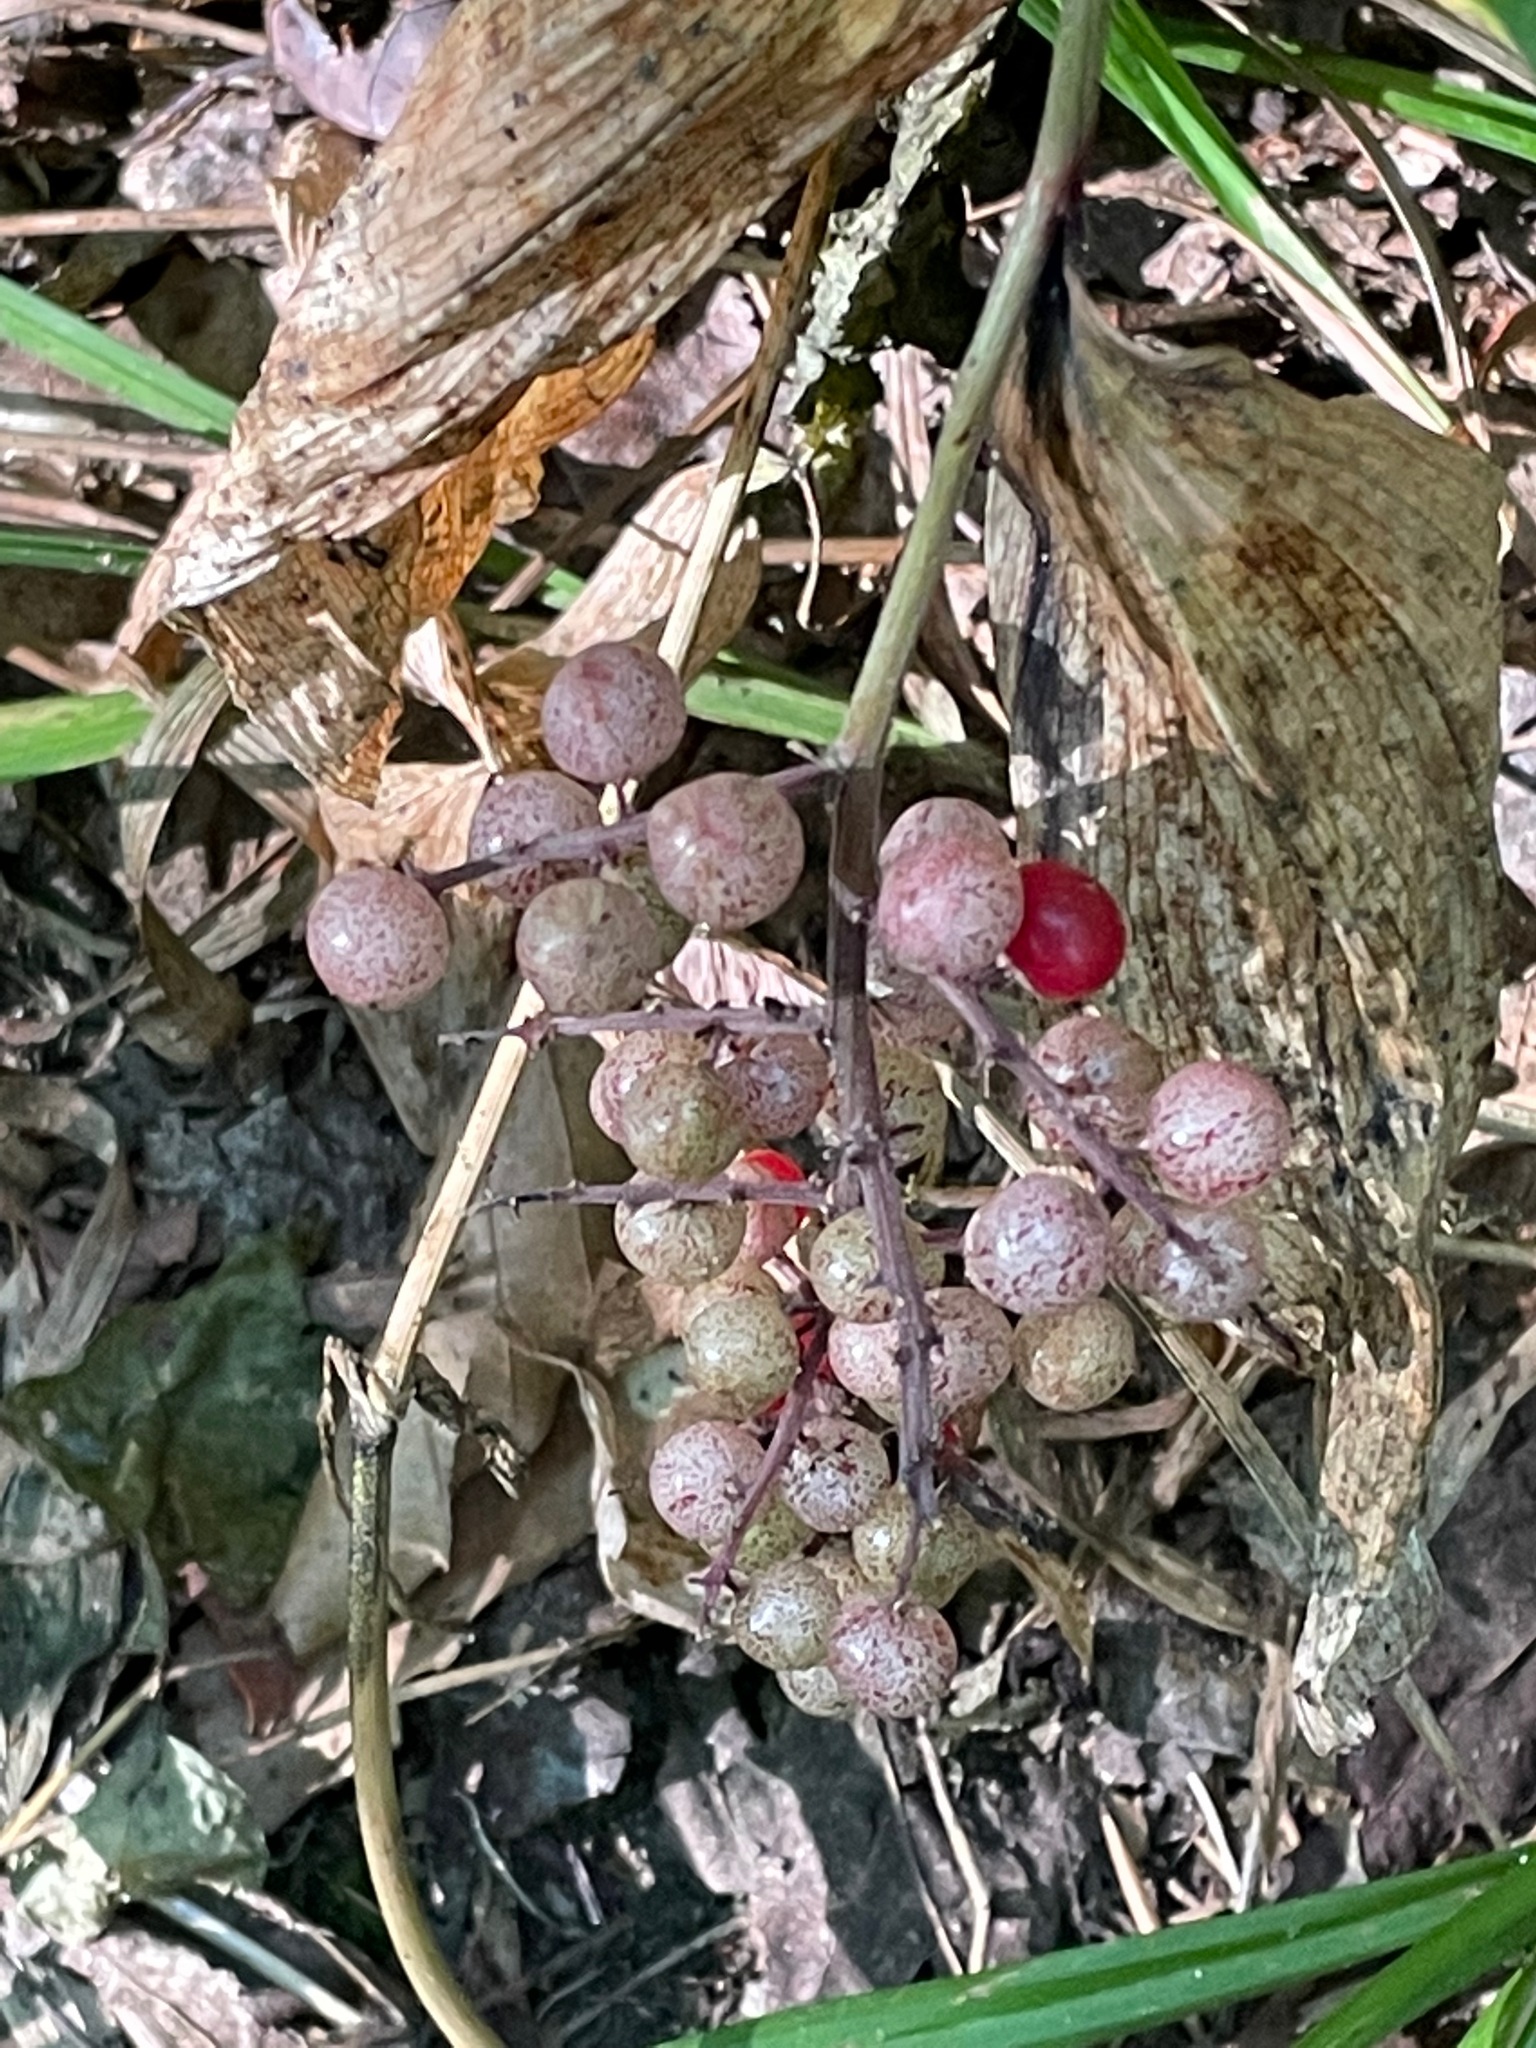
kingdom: Plantae
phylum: Tracheophyta
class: Liliopsida
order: Asparagales
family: Asparagaceae
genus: Maianthemum
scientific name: Maianthemum racemosum
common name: False spikenard
